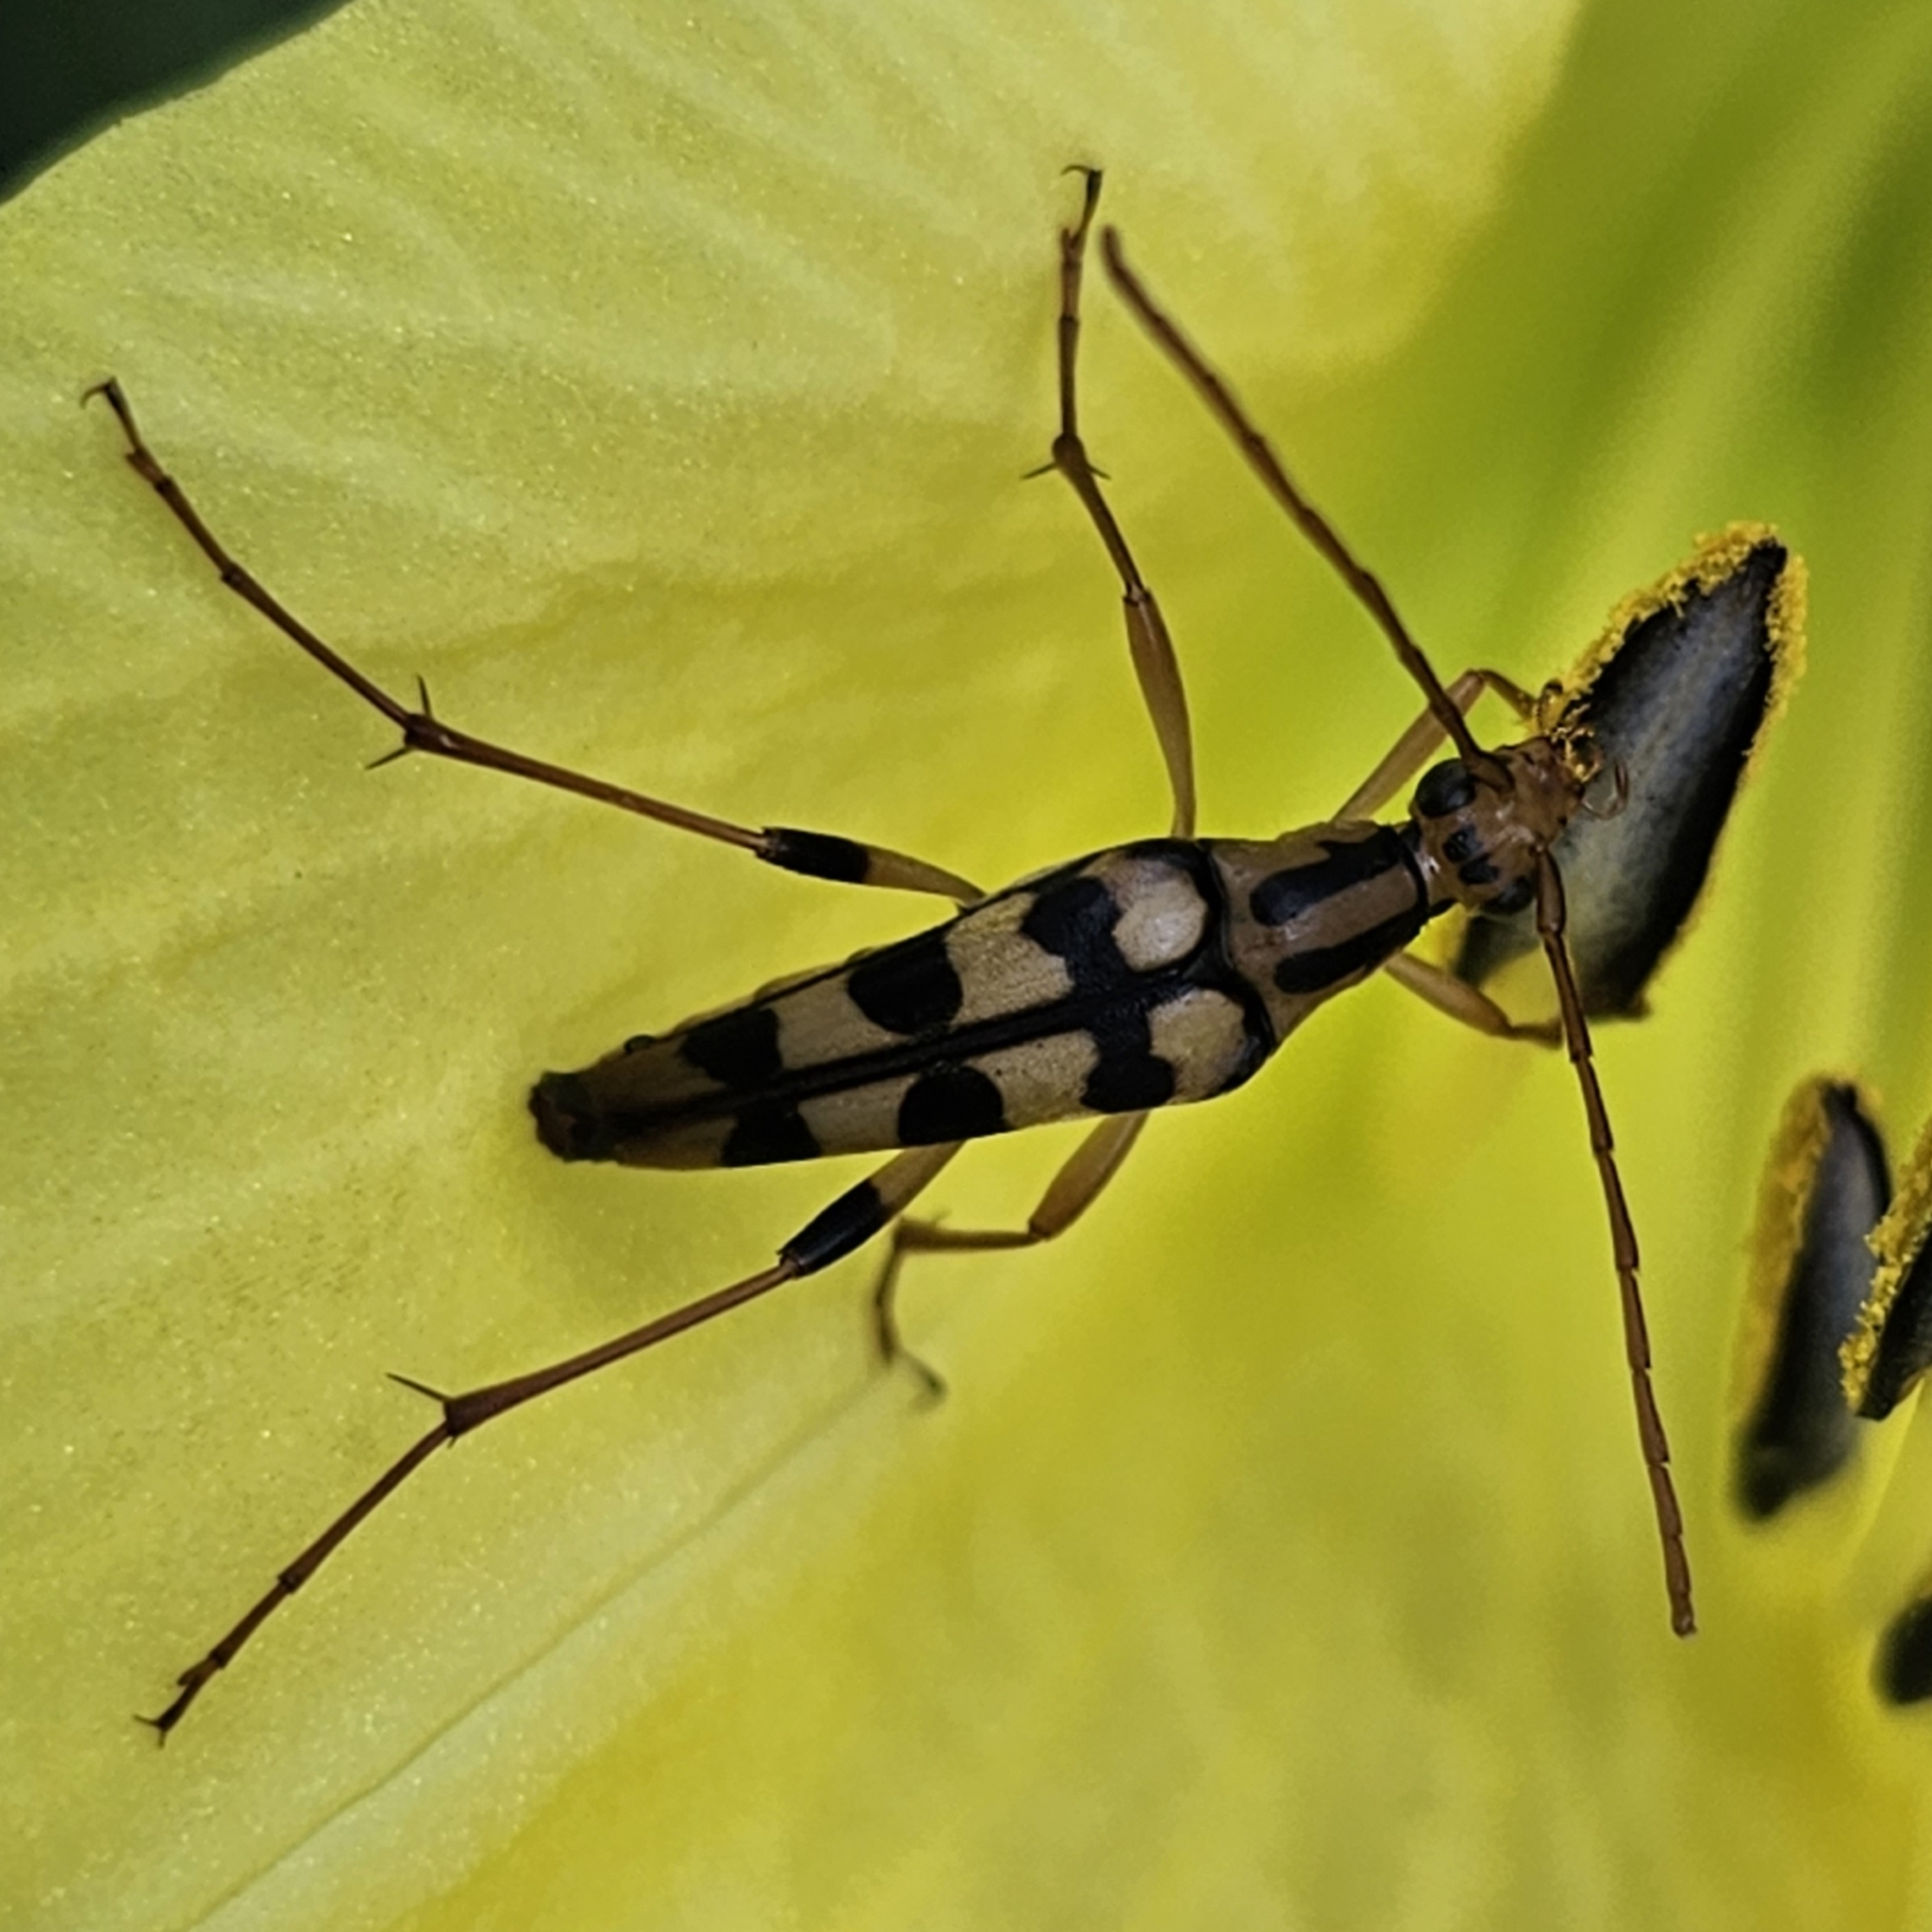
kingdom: Animalia
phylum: Arthropoda
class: Insecta
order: Coleoptera
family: Cerambycidae
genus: Strangalia
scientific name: Strangalia luteicornis
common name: Yellow-horned flower longhorn beetle
